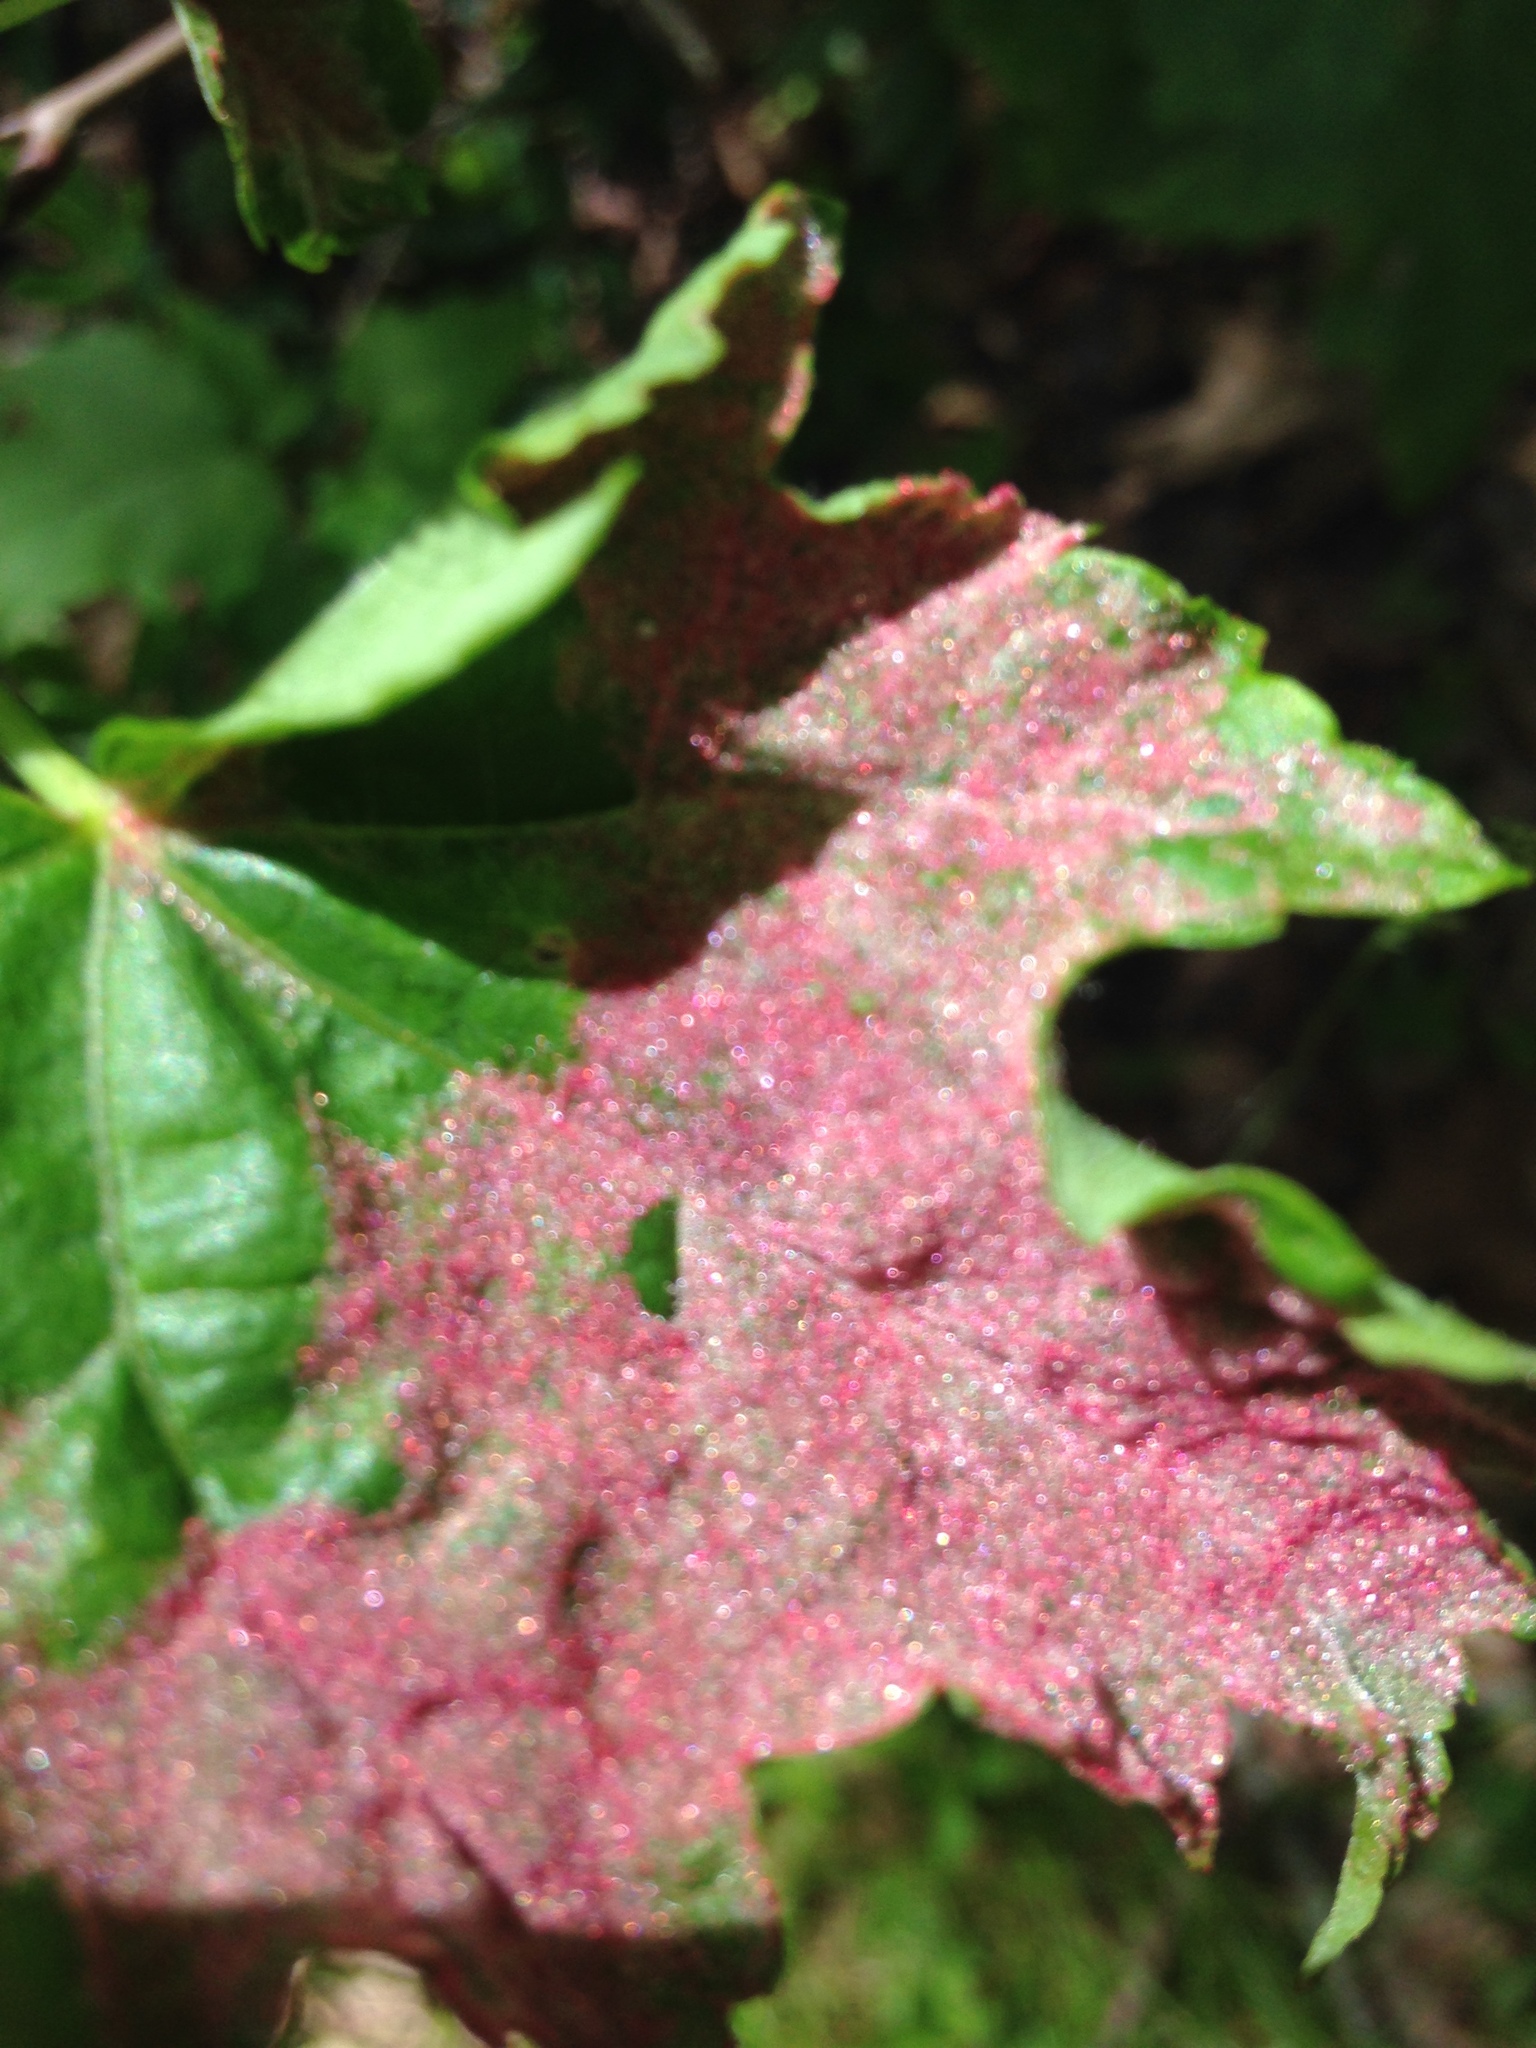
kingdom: Animalia
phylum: Arthropoda
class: Arachnida
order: Trombidiformes
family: Eriophyidae
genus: Aculus
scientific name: Aculus
